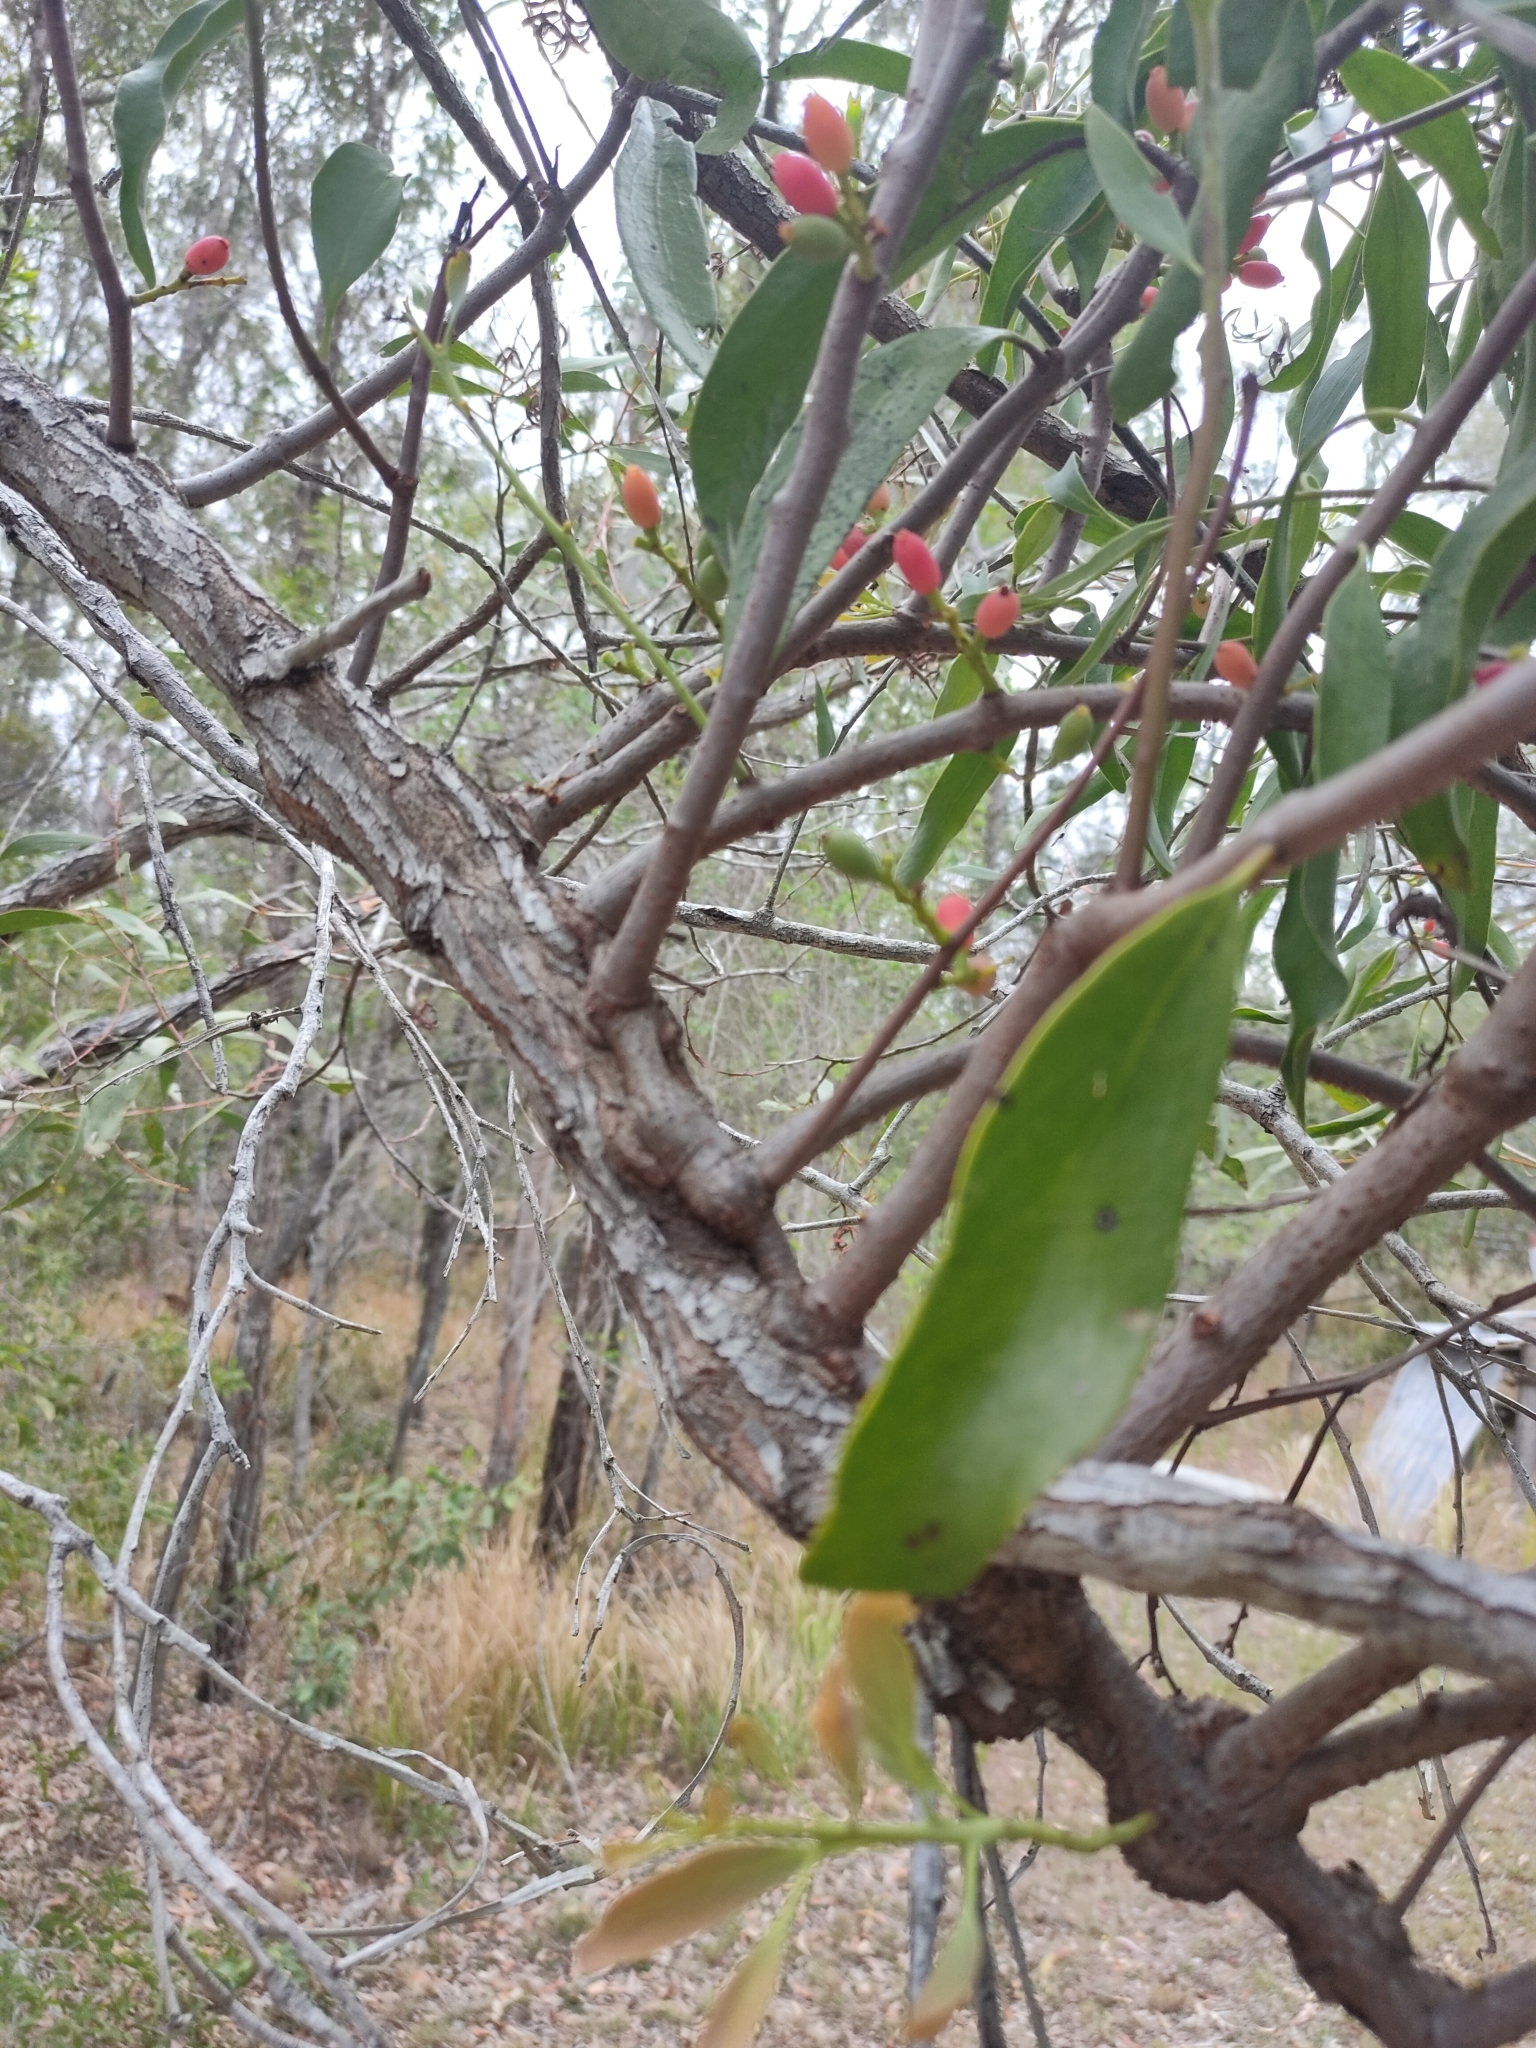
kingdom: Plantae
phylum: Tracheophyta
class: Magnoliopsida
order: Santalales
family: Loranthaceae
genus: Dendrophthoe
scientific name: Dendrophthoe glabrescens
